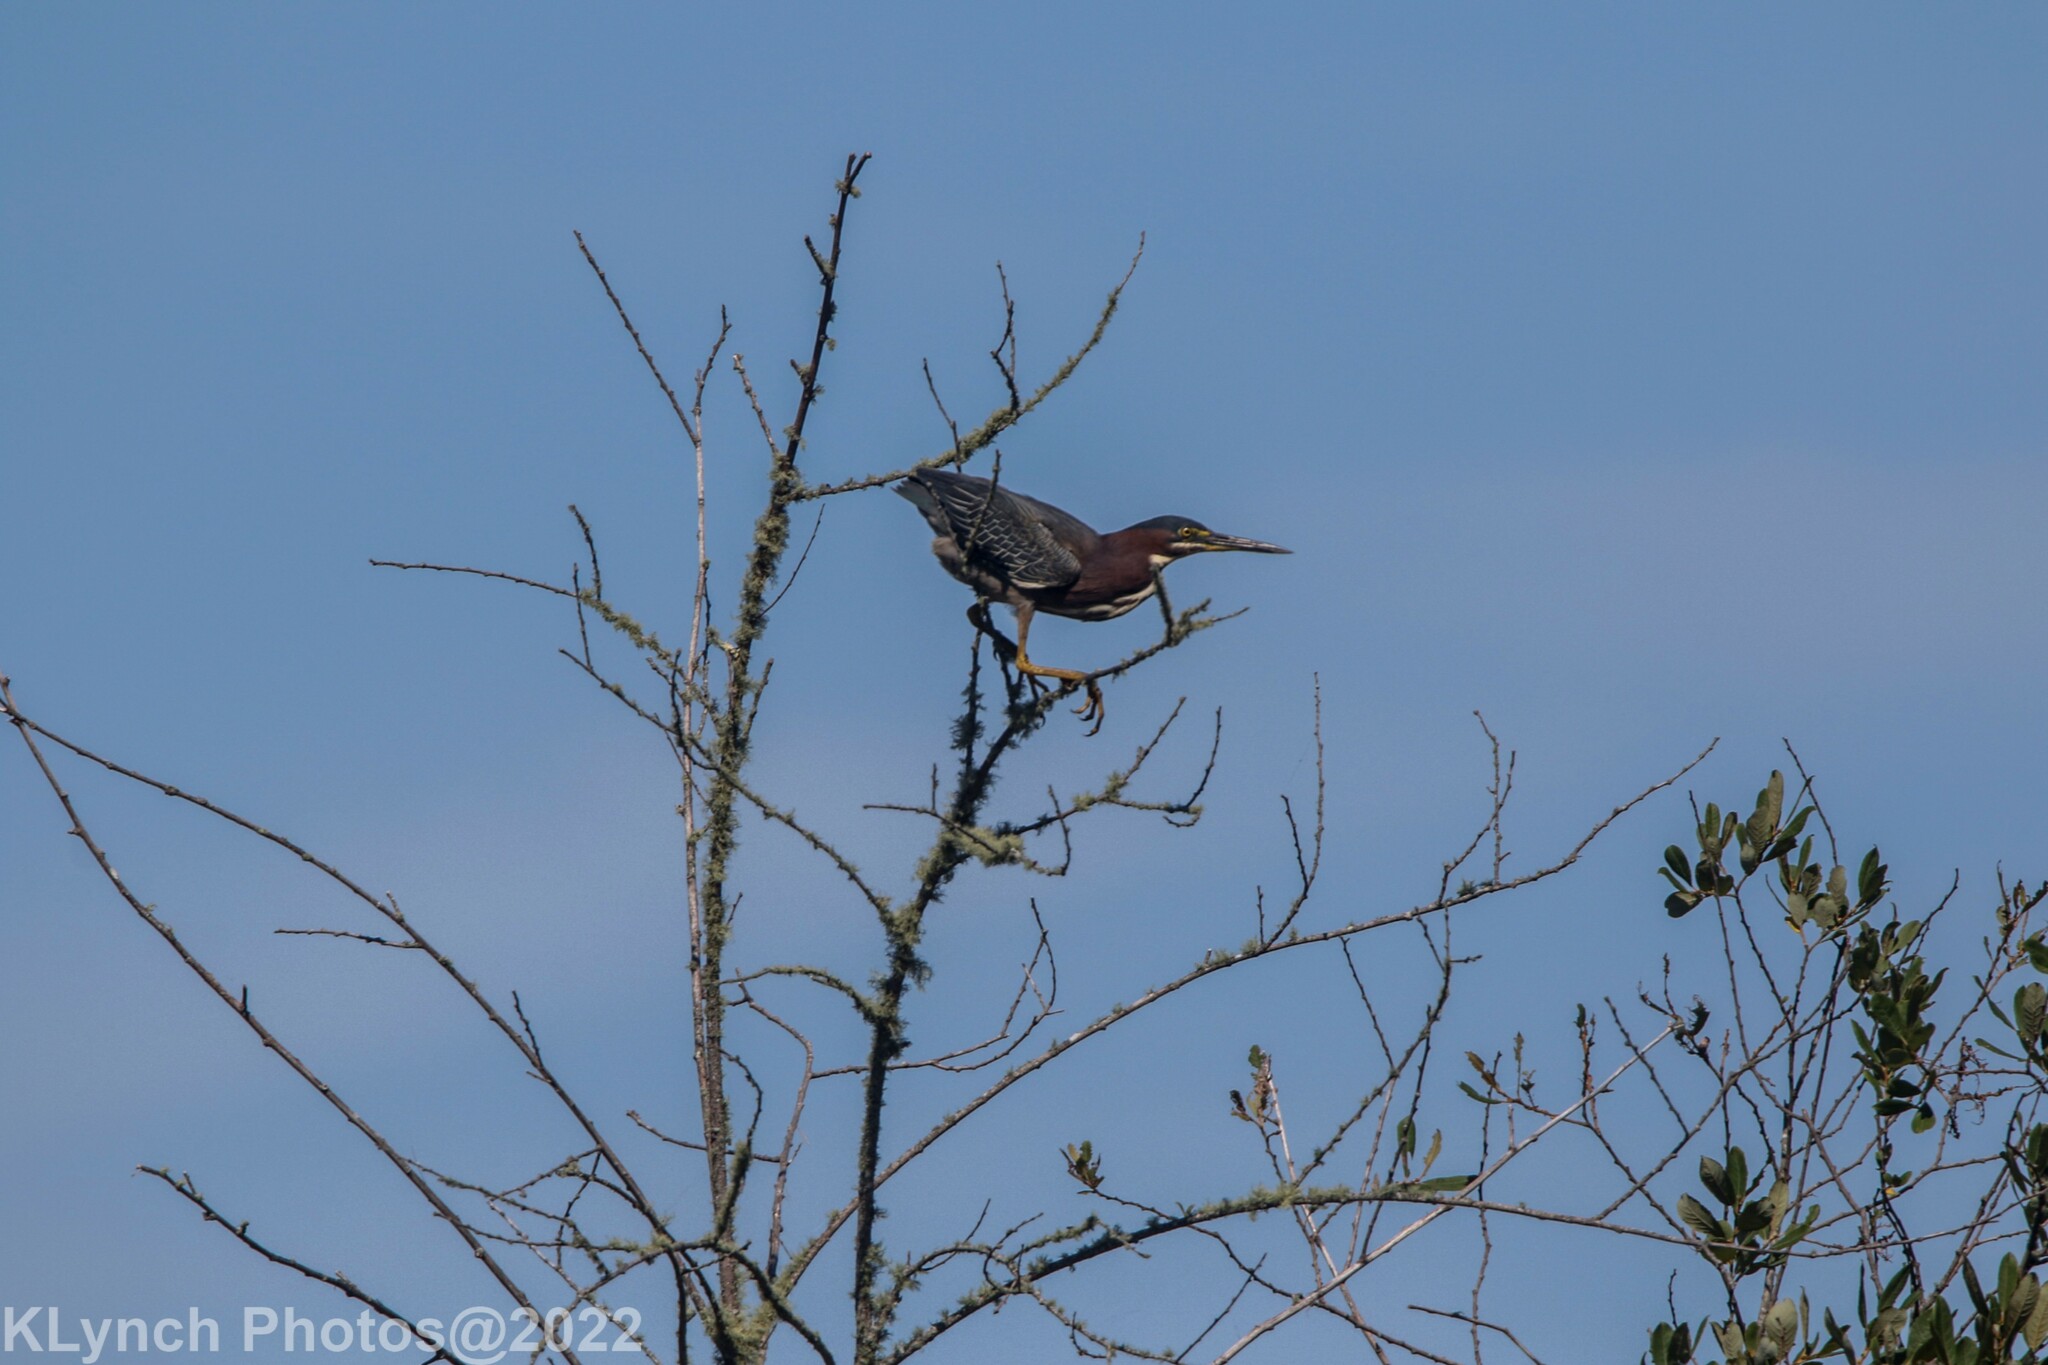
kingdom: Animalia
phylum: Chordata
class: Aves
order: Pelecaniformes
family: Ardeidae
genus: Butorides
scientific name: Butorides virescens
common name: Green heron
